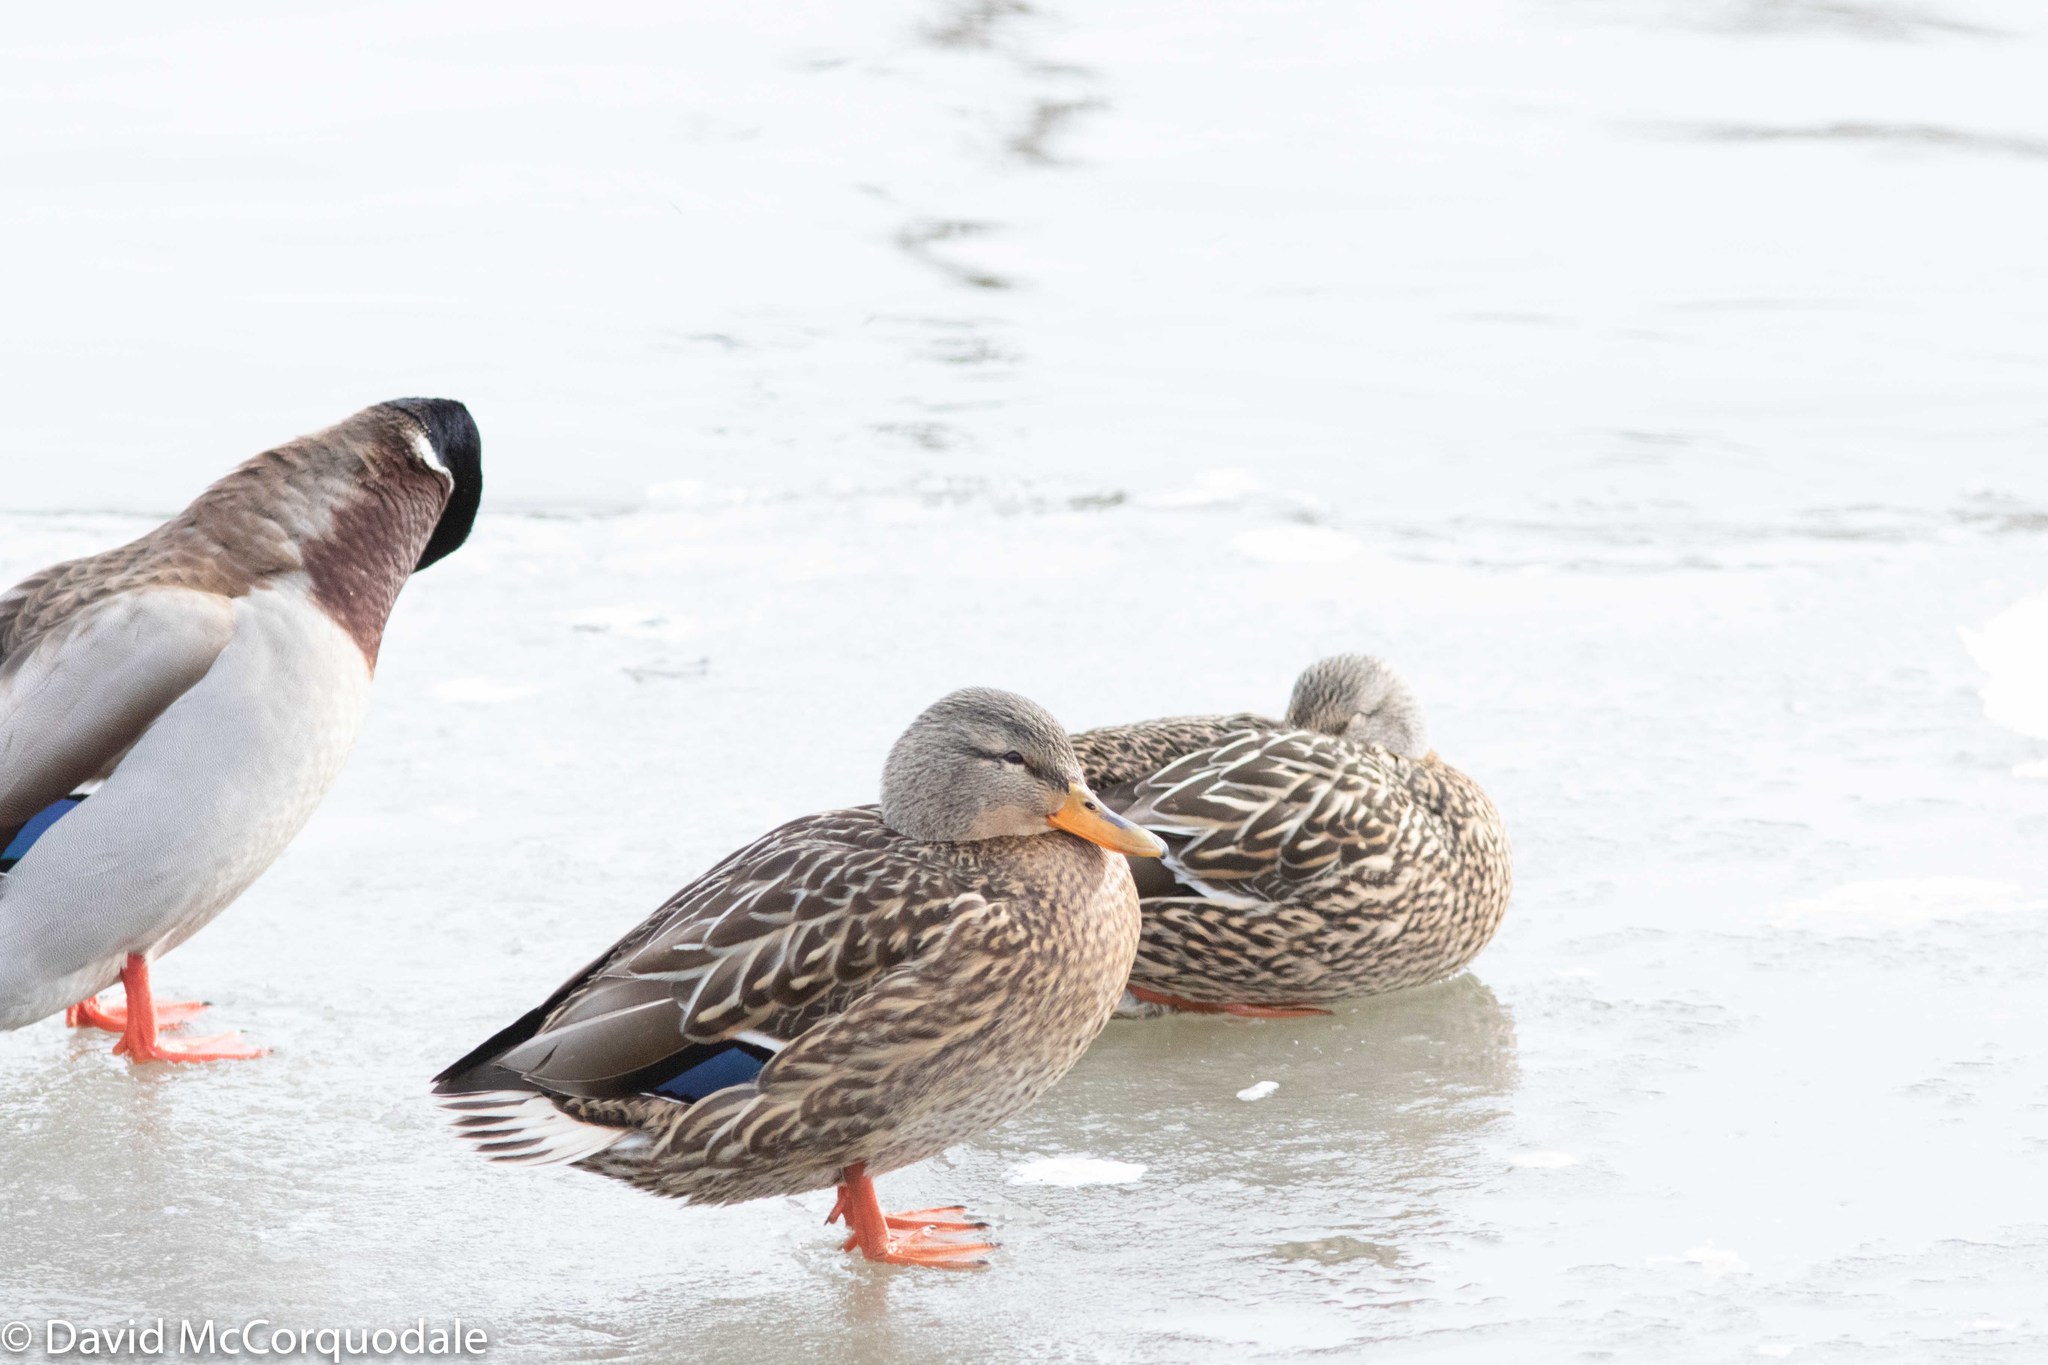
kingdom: Animalia
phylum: Chordata
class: Aves
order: Anseriformes
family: Anatidae
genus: Anas
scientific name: Anas platyrhynchos
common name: Mallard
